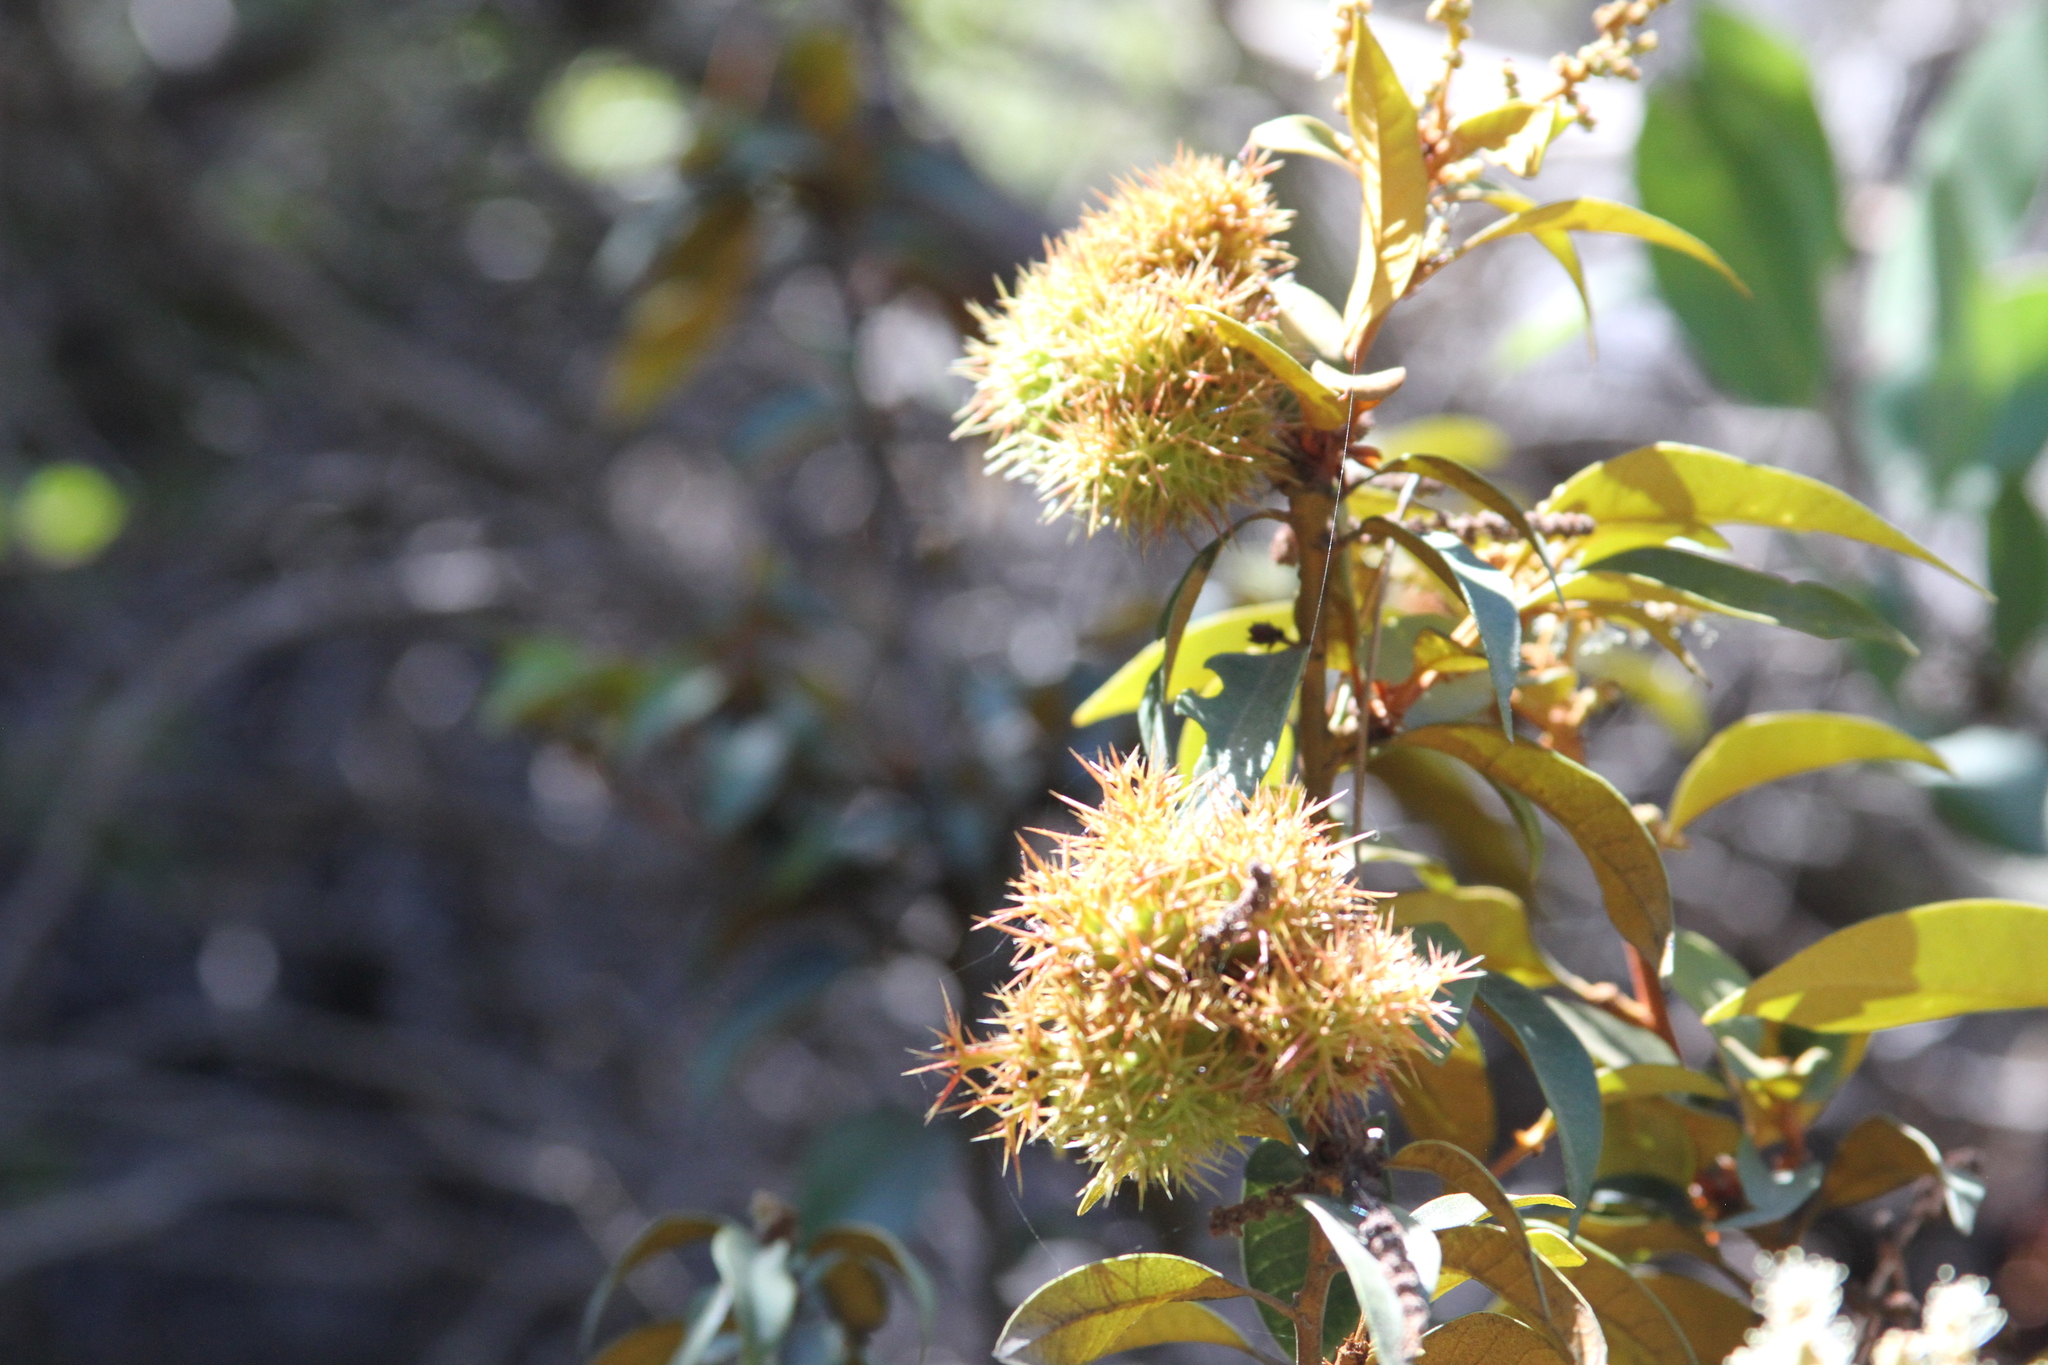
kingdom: Plantae
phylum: Tracheophyta
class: Magnoliopsida
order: Fagales
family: Fagaceae
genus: Chrysolepis
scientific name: Chrysolepis chrysophylla
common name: Giant chinquapin
